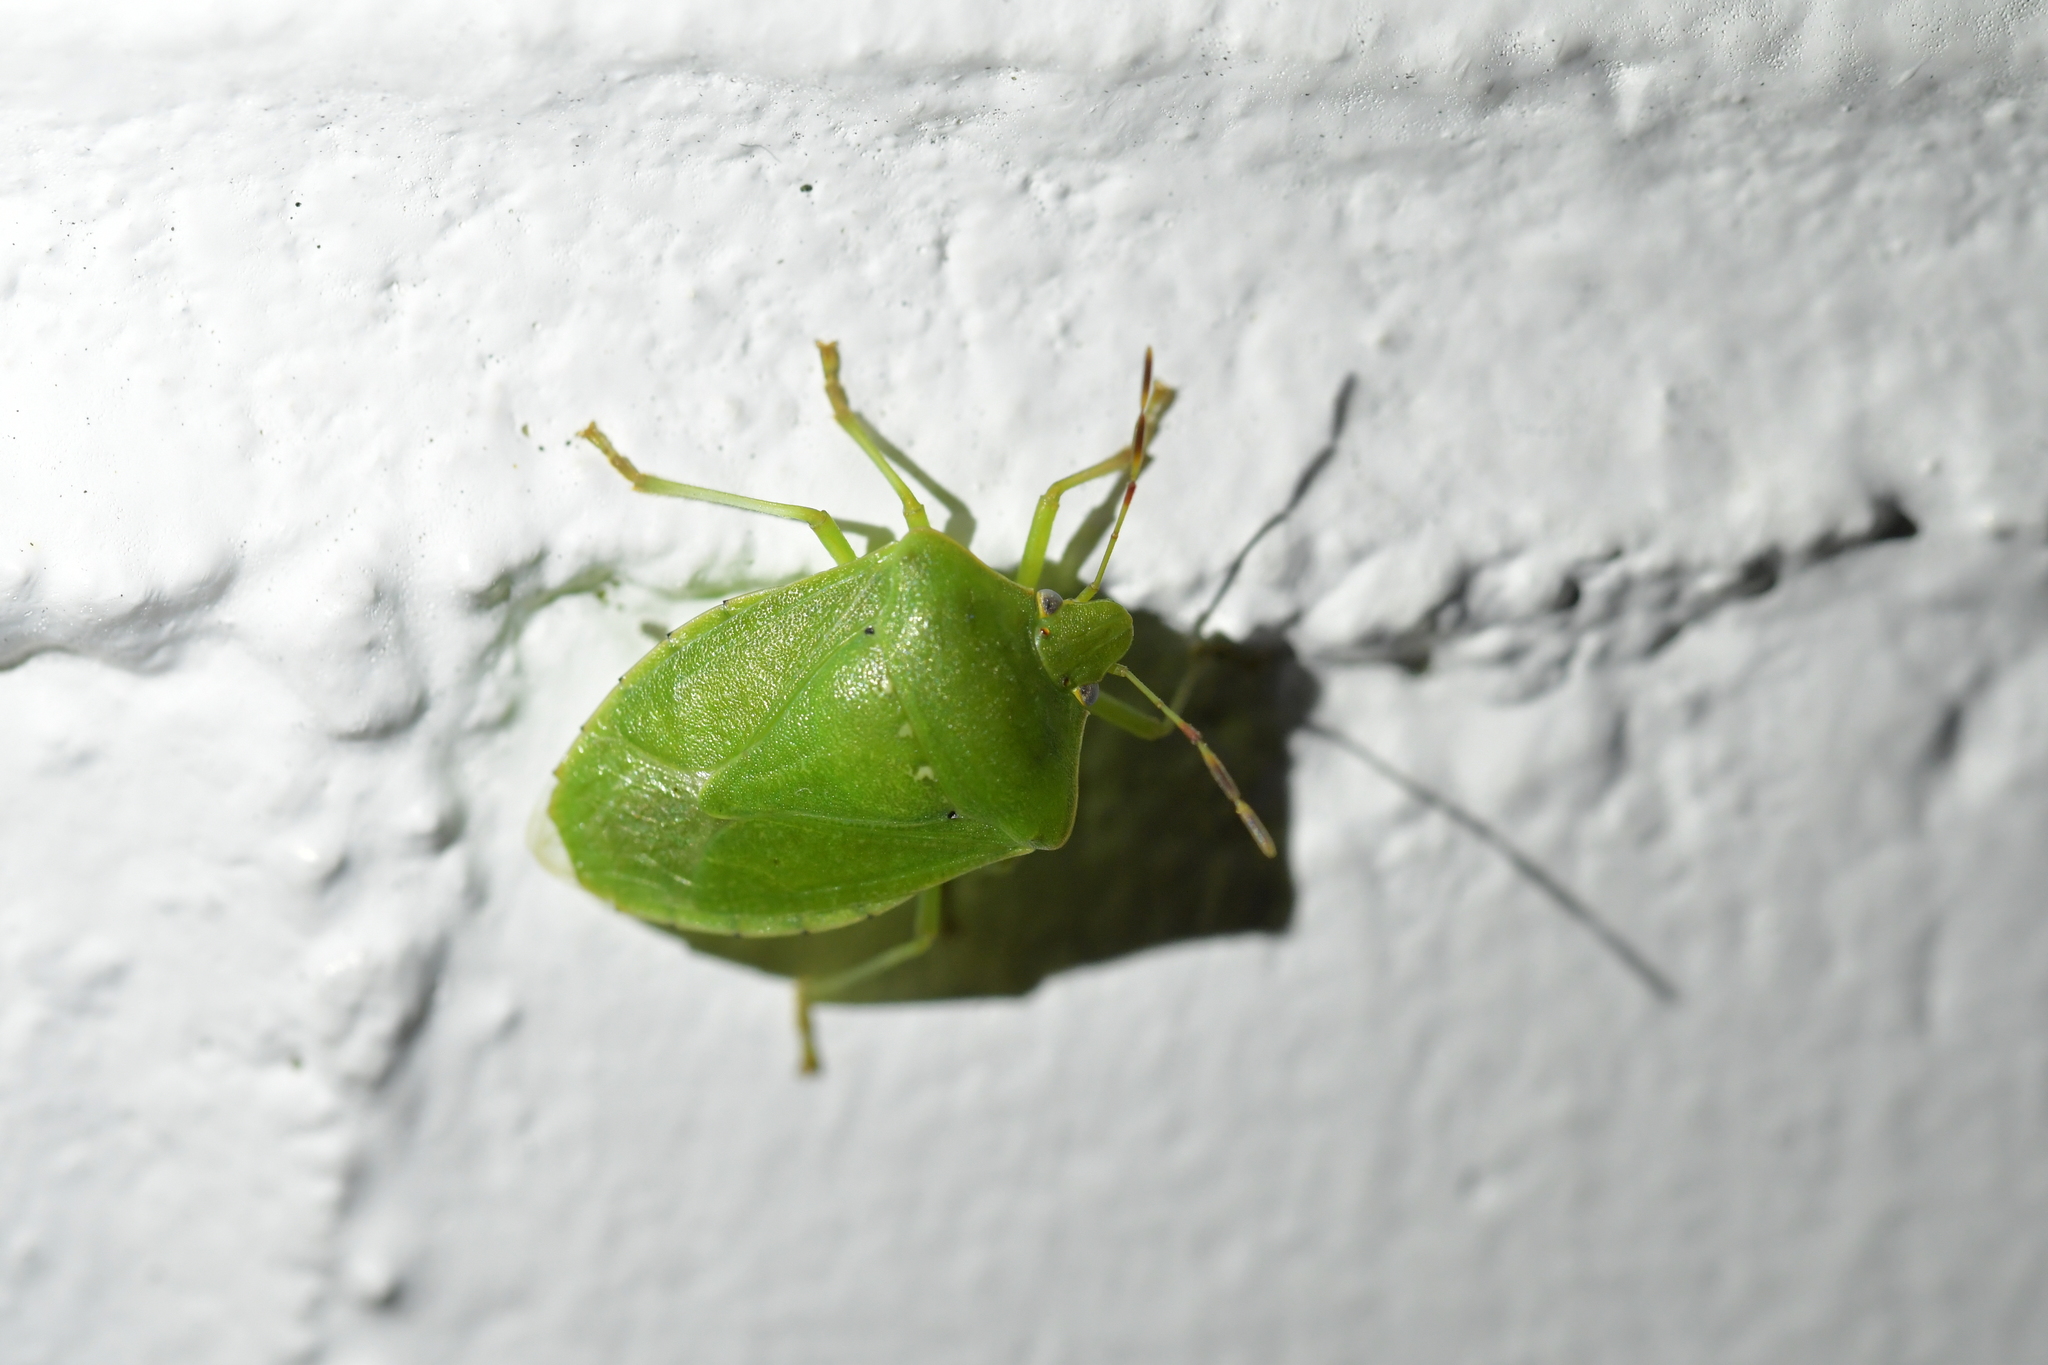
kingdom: Animalia
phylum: Arthropoda
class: Insecta
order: Hemiptera
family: Pentatomidae
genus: Nezara
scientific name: Nezara viridula
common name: Southern green stink bug
